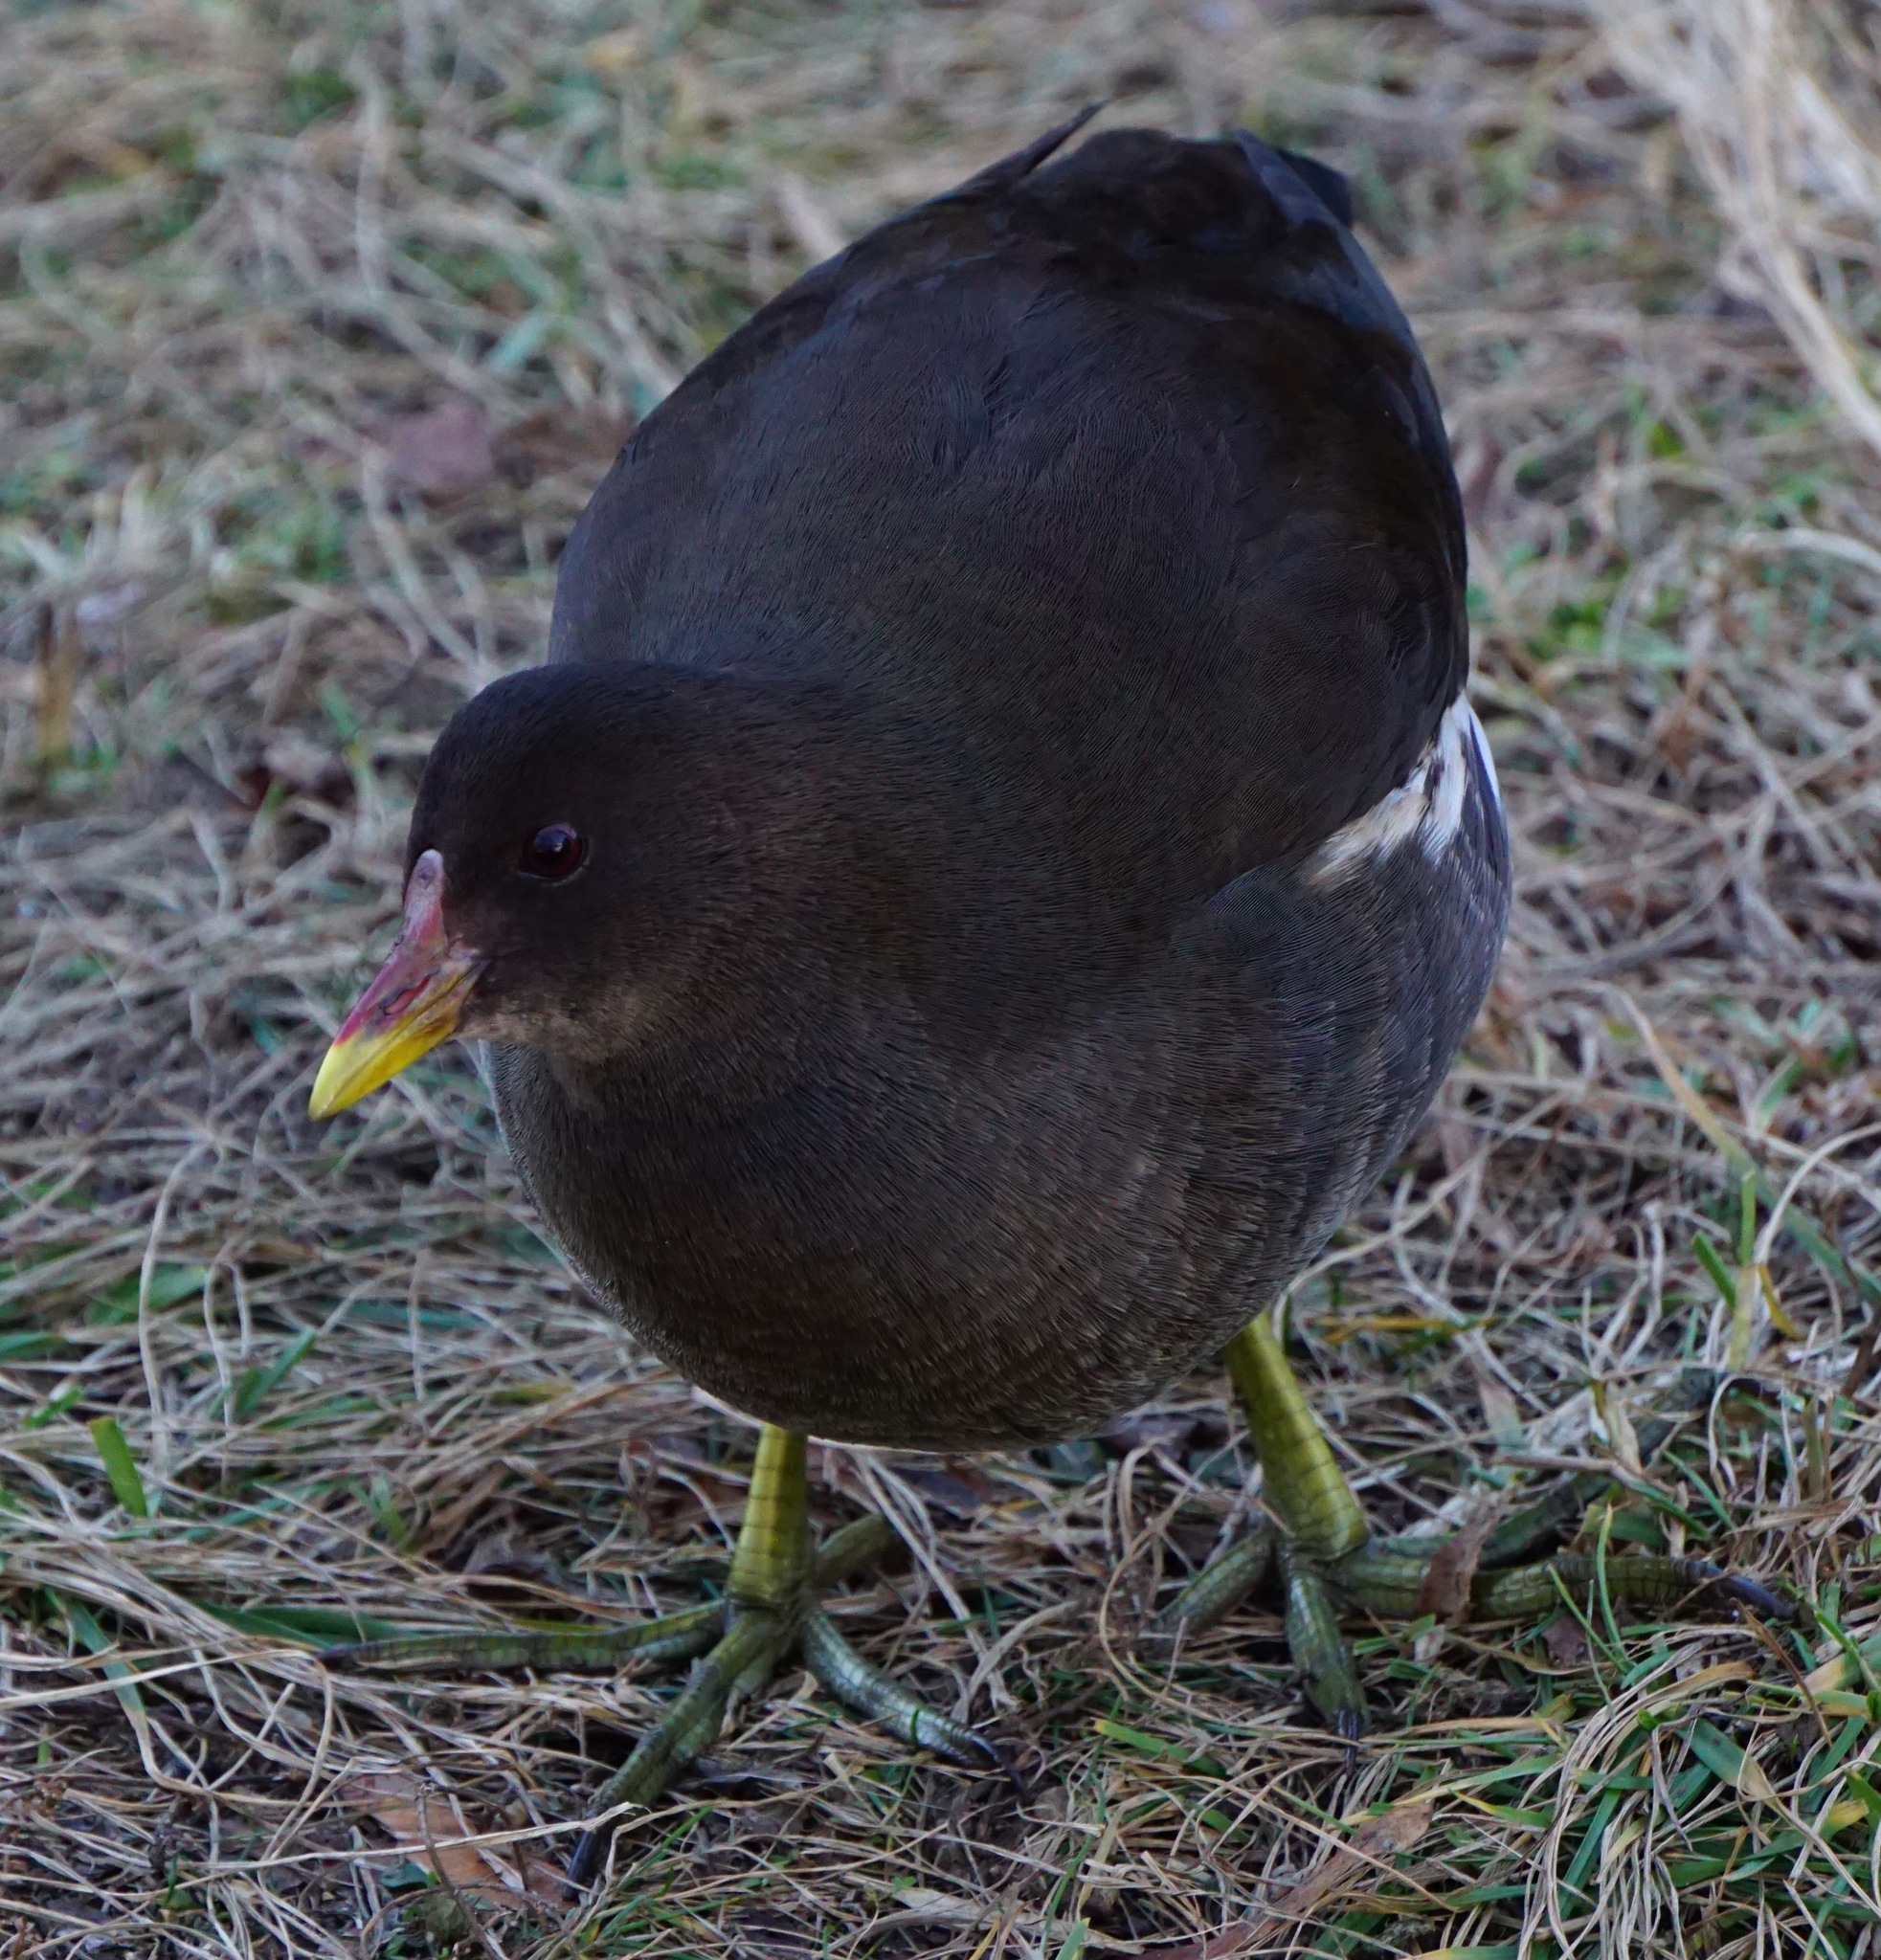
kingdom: Animalia
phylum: Chordata
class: Aves
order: Gruiformes
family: Rallidae
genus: Gallinula
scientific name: Gallinula chloropus
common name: Common moorhen
